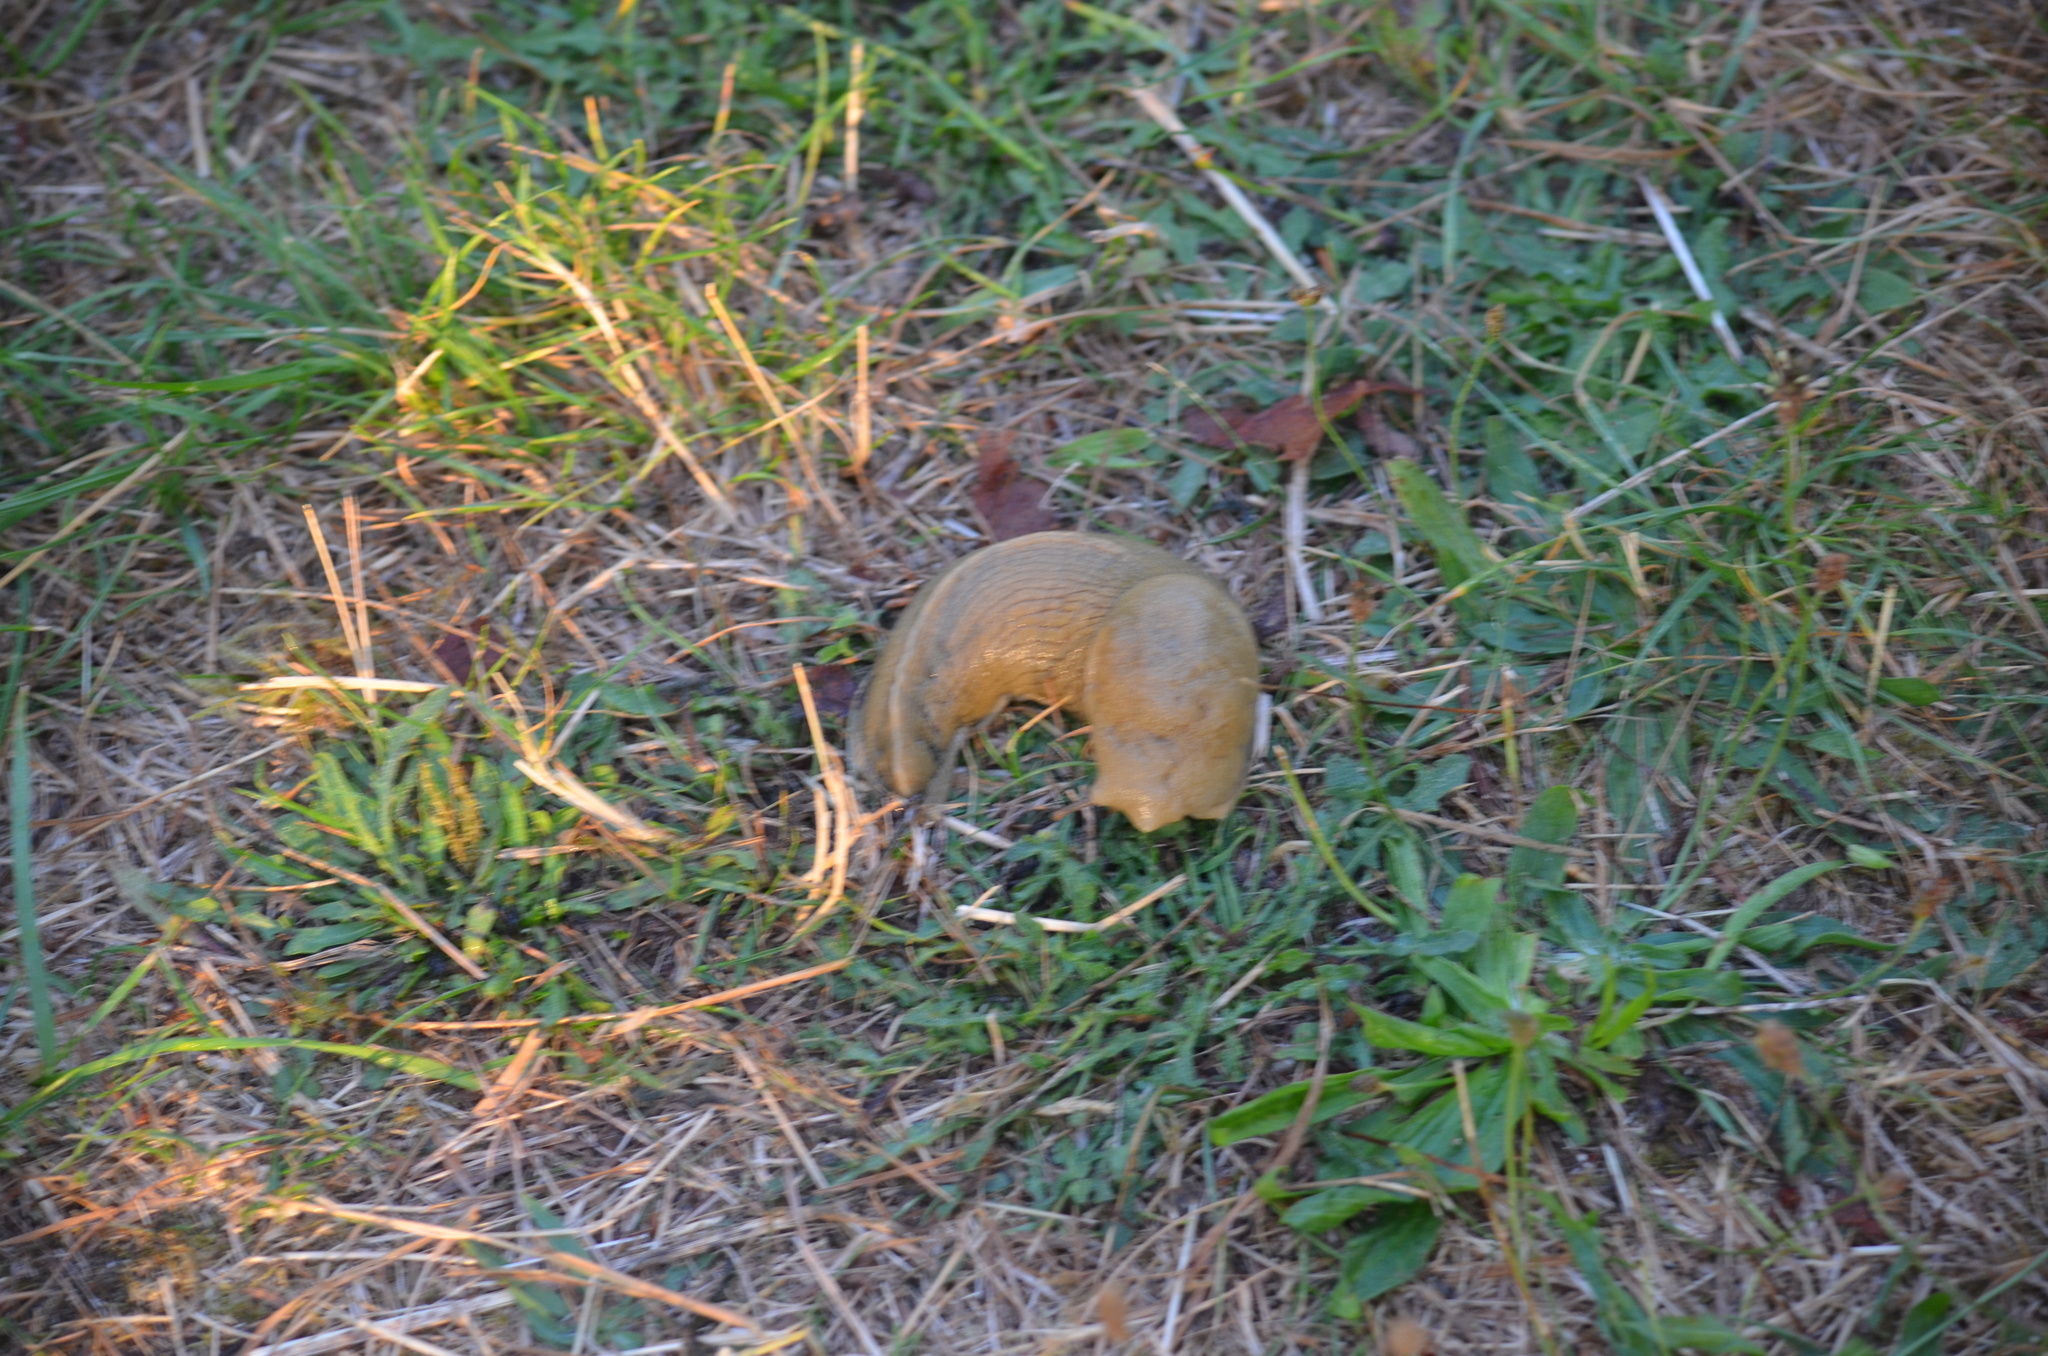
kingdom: Animalia
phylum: Mollusca
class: Gastropoda
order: Stylommatophora
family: Ariolimacidae
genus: Ariolimax
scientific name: Ariolimax columbianus
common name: Pacific banana slug
